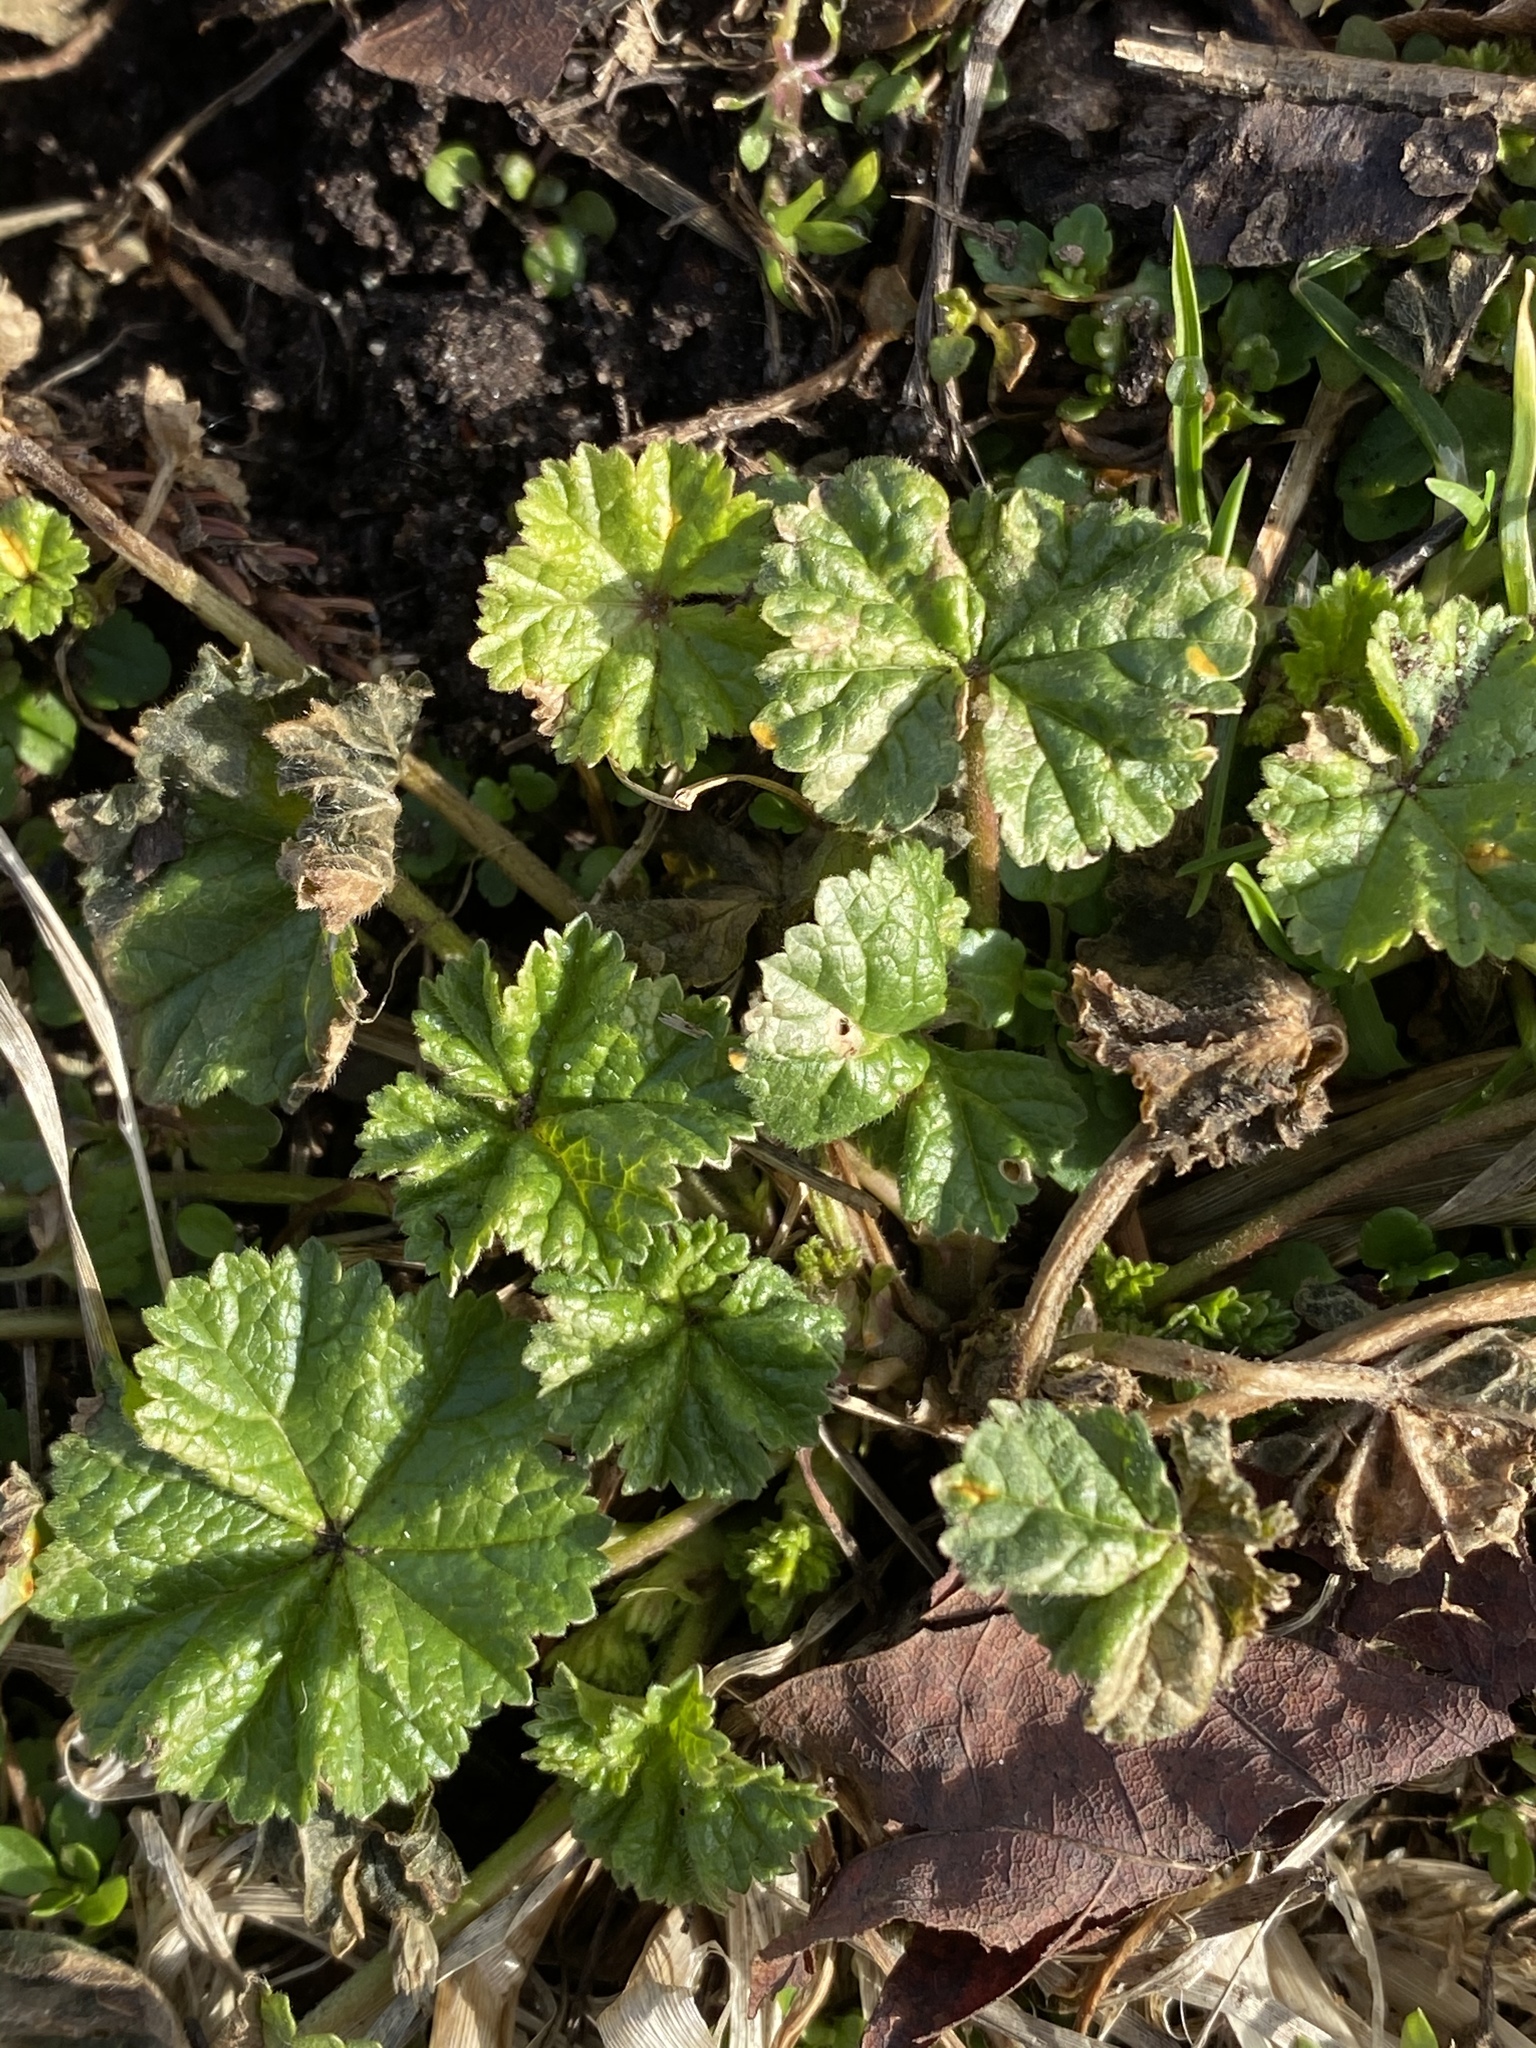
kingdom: Plantae
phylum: Tracheophyta
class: Magnoliopsida
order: Malvales
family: Malvaceae
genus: Malva
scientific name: Malva neglecta
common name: Common mallow
